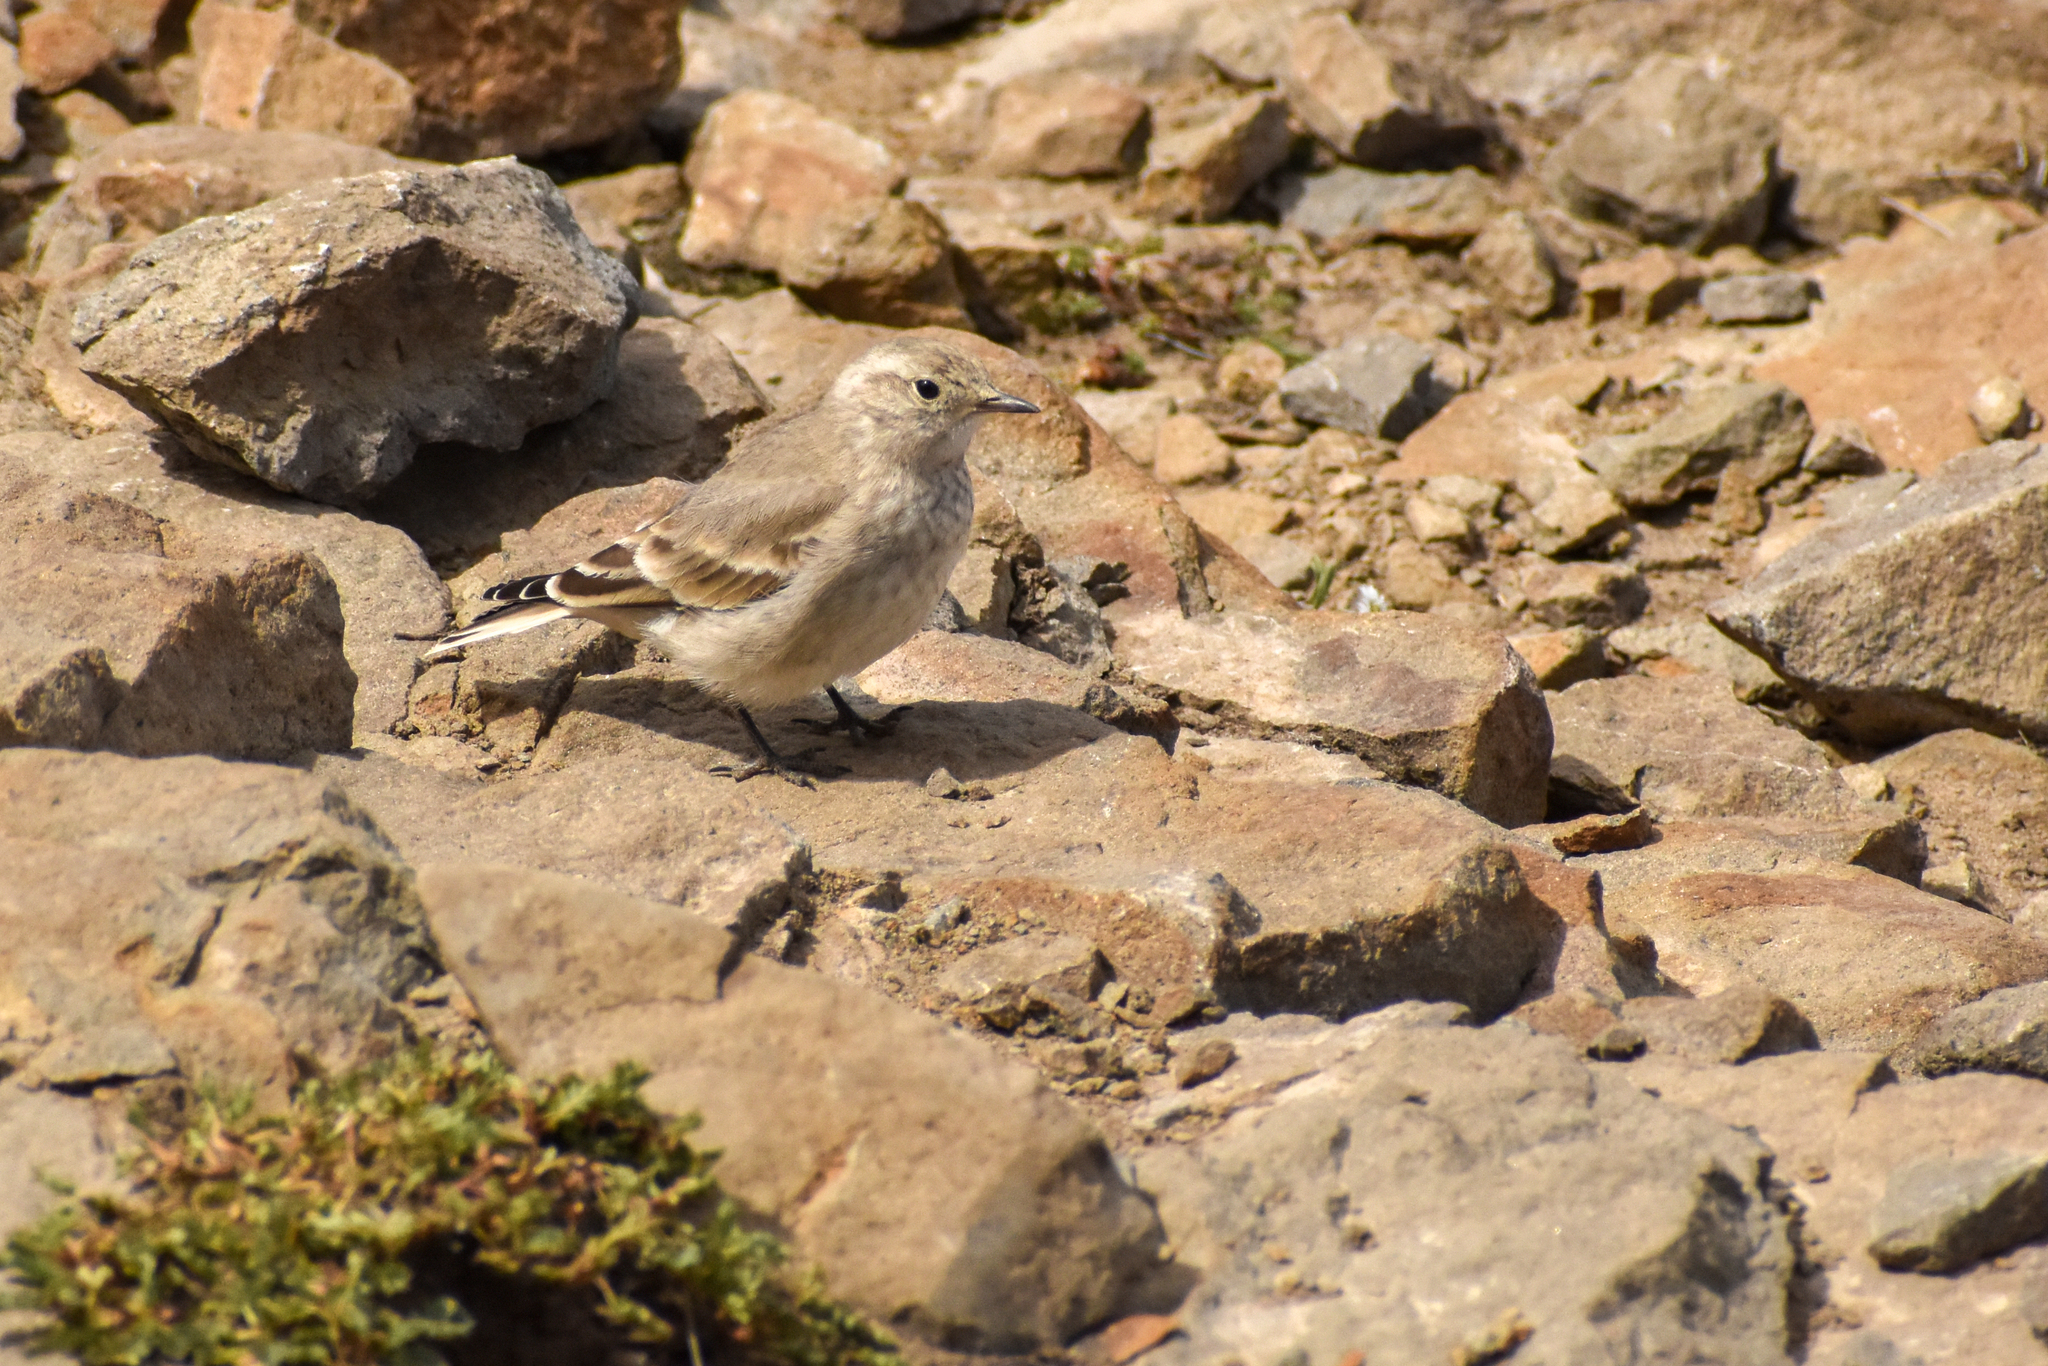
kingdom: Animalia
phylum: Chordata
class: Aves
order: Passeriformes
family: Furnariidae
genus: Geositta
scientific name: Geositta antarctica
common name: Short-billed miner
